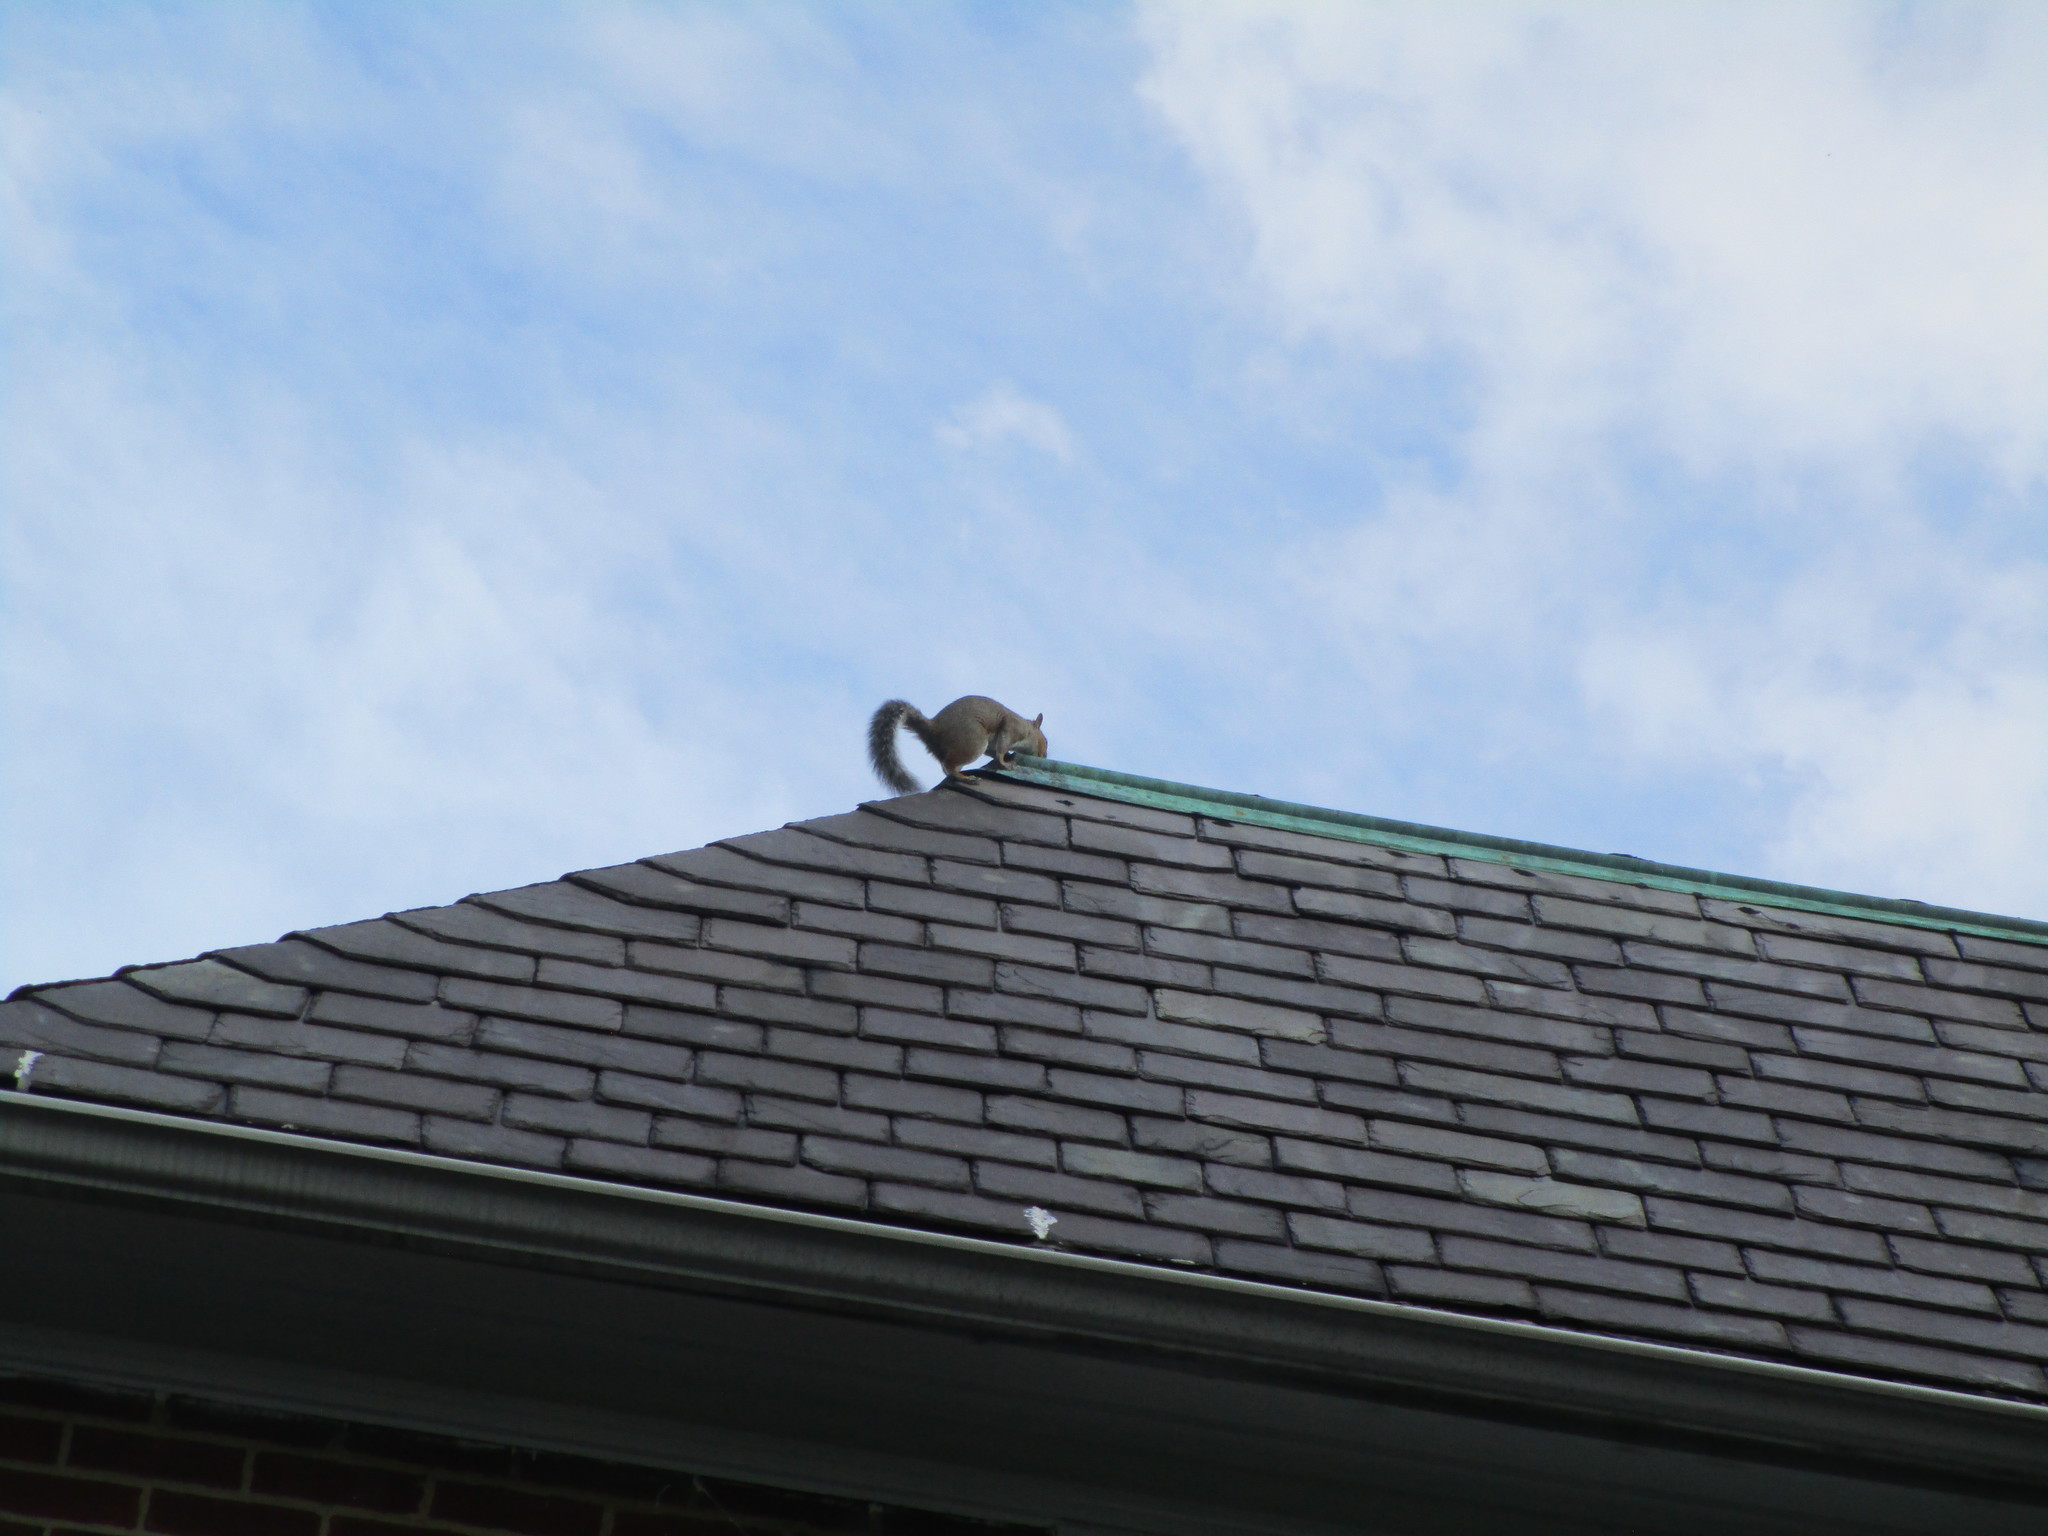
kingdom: Animalia
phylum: Chordata
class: Mammalia
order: Rodentia
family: Sciuridae
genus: Sciurus
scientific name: Sciurus carolinensis
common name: Eastern gray squirrel
